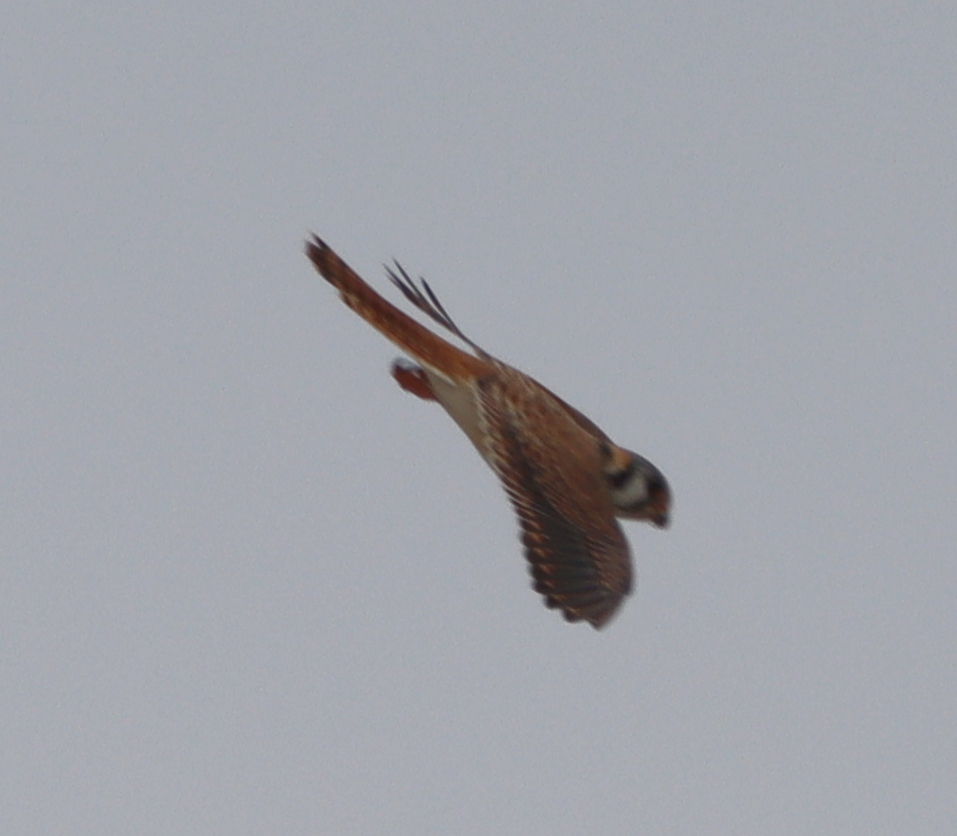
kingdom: Animalia
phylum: Chordata
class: Aves
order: Falconiformes
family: Falconidae
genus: Falco
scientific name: Falco sparverius
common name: American kestrel
